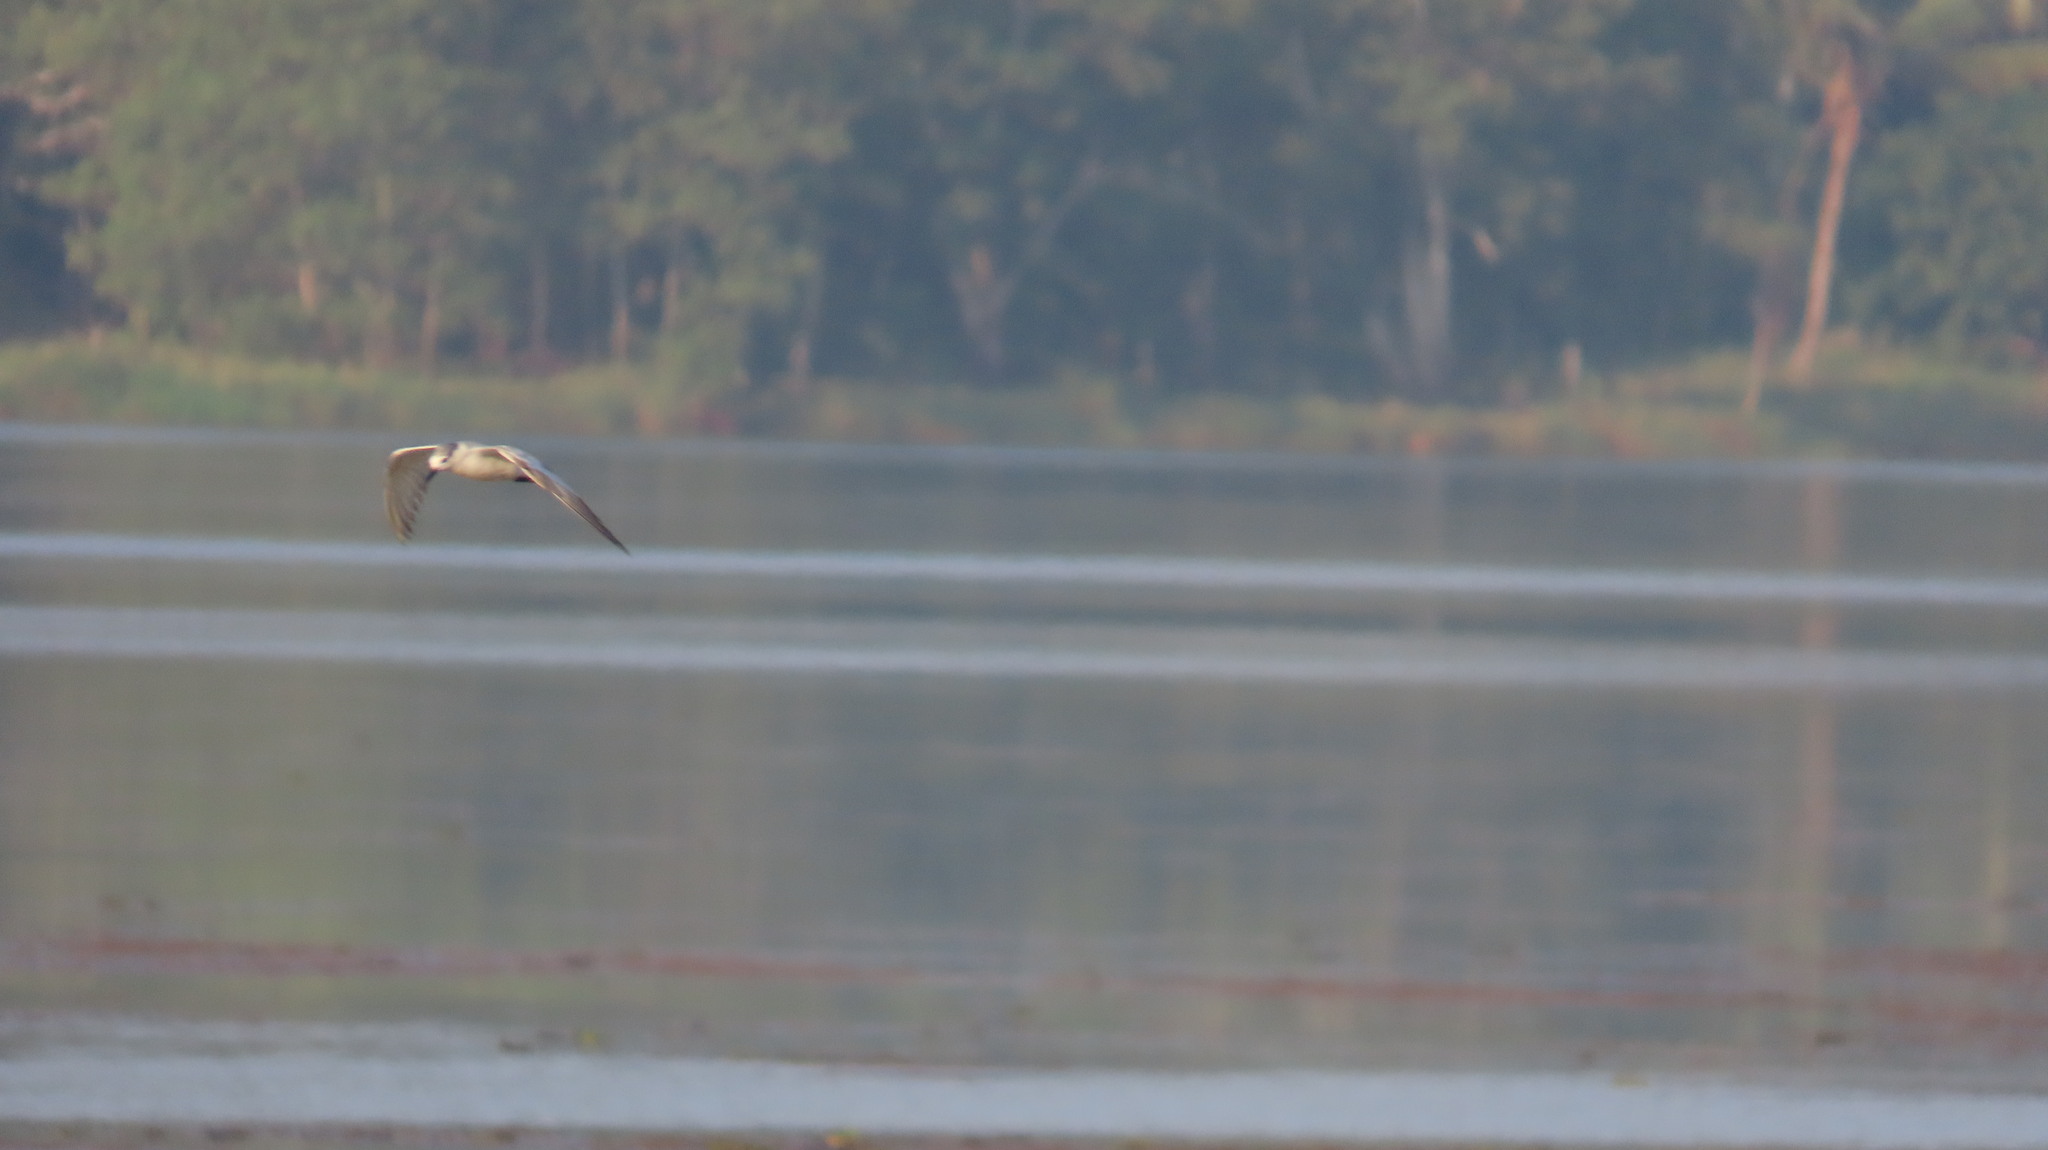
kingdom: Animalia
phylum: Chordata
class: Aves
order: Charadriiformes
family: Laridae
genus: Chlidonias
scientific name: Chlidonias hybrida
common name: Whiskered tern
